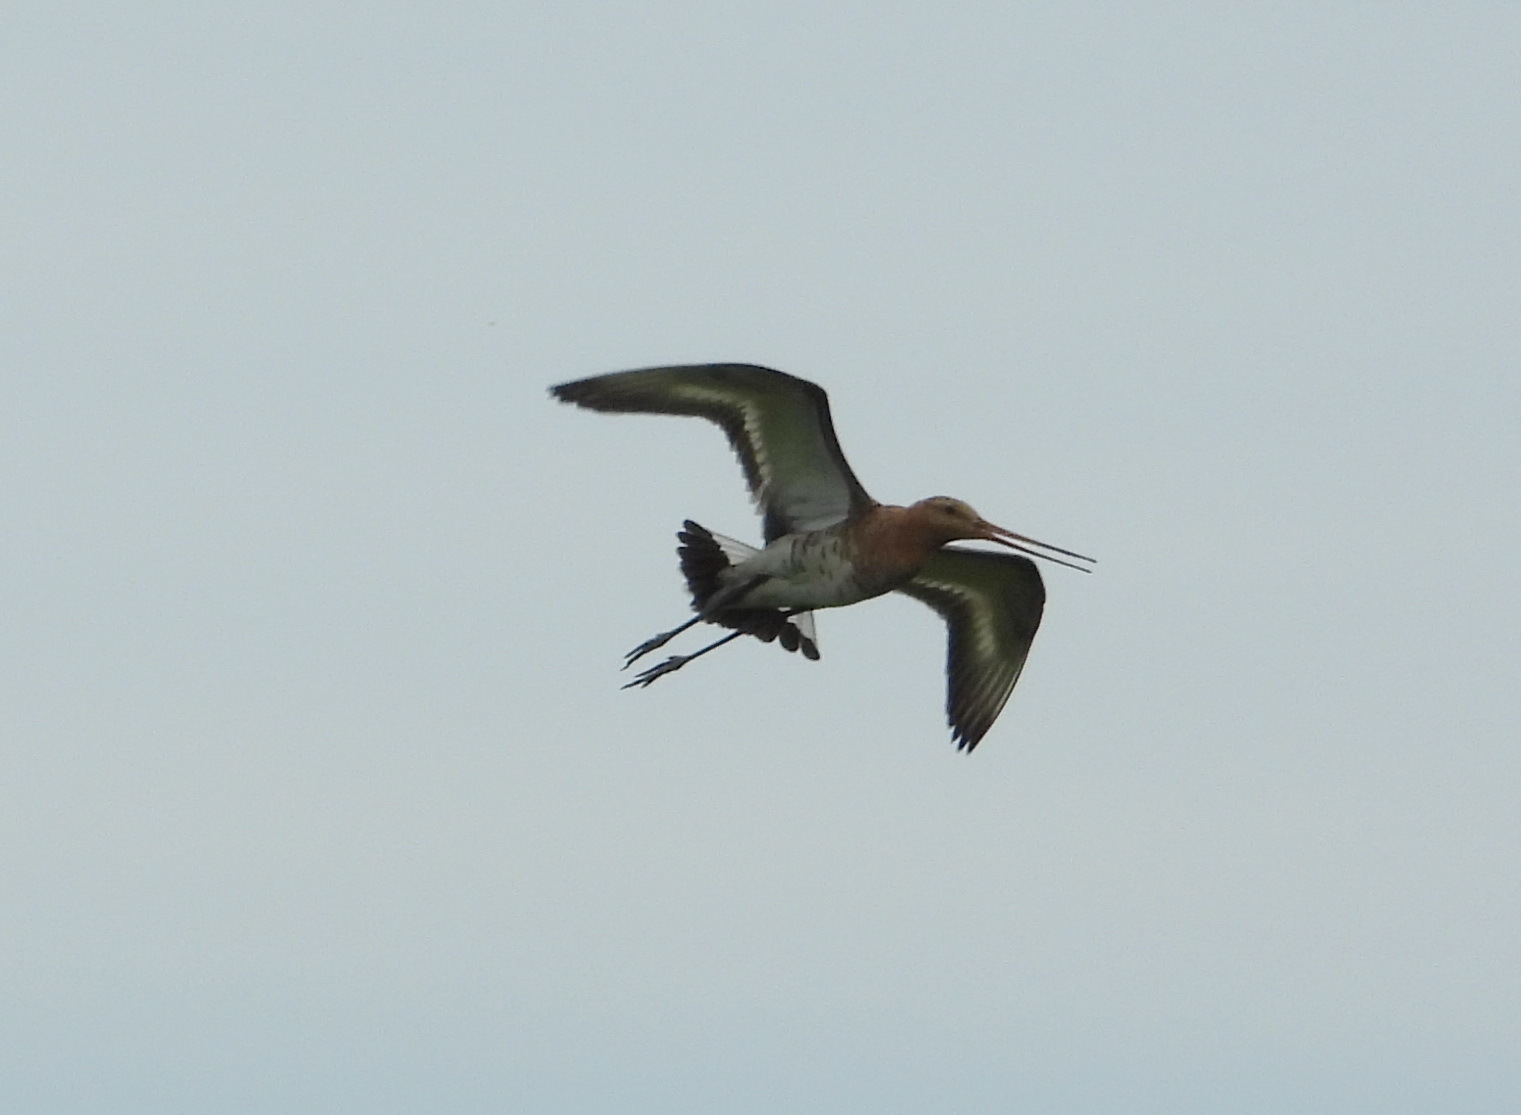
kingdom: Animalia
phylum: Chordata
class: Aves
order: Charadriiformes
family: Scolopacidae
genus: Limosa
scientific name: Limosa limosa
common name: Black-tailed godwit
